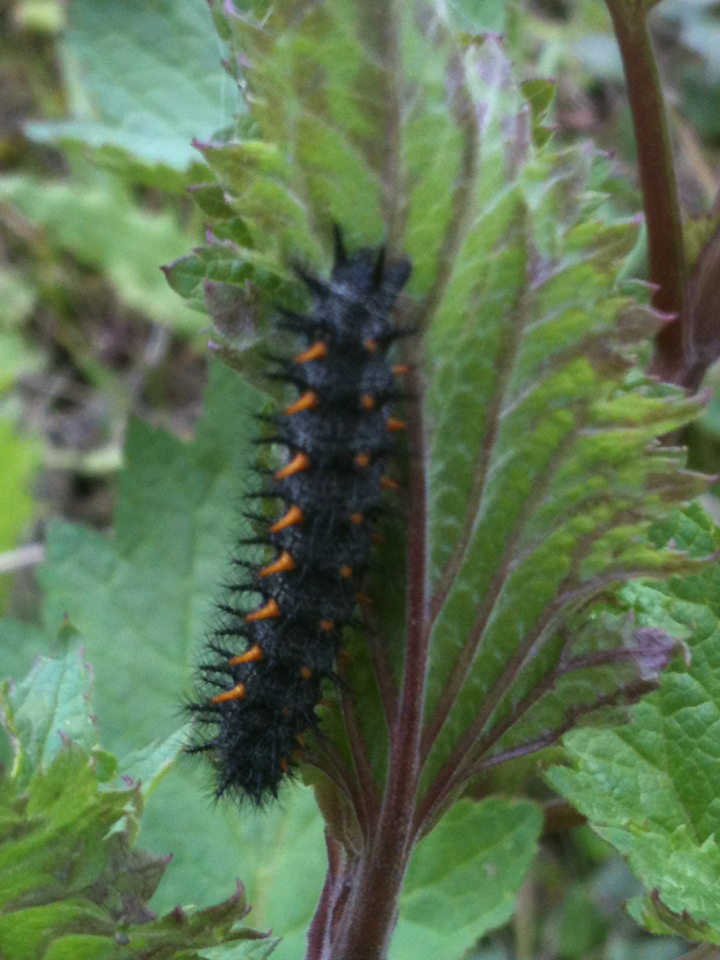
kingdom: Animalia
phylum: Arthropoda
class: Insecta
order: Lepidoptera
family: Nymphalidae
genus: Occidryas
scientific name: Occidryas chalcedona
